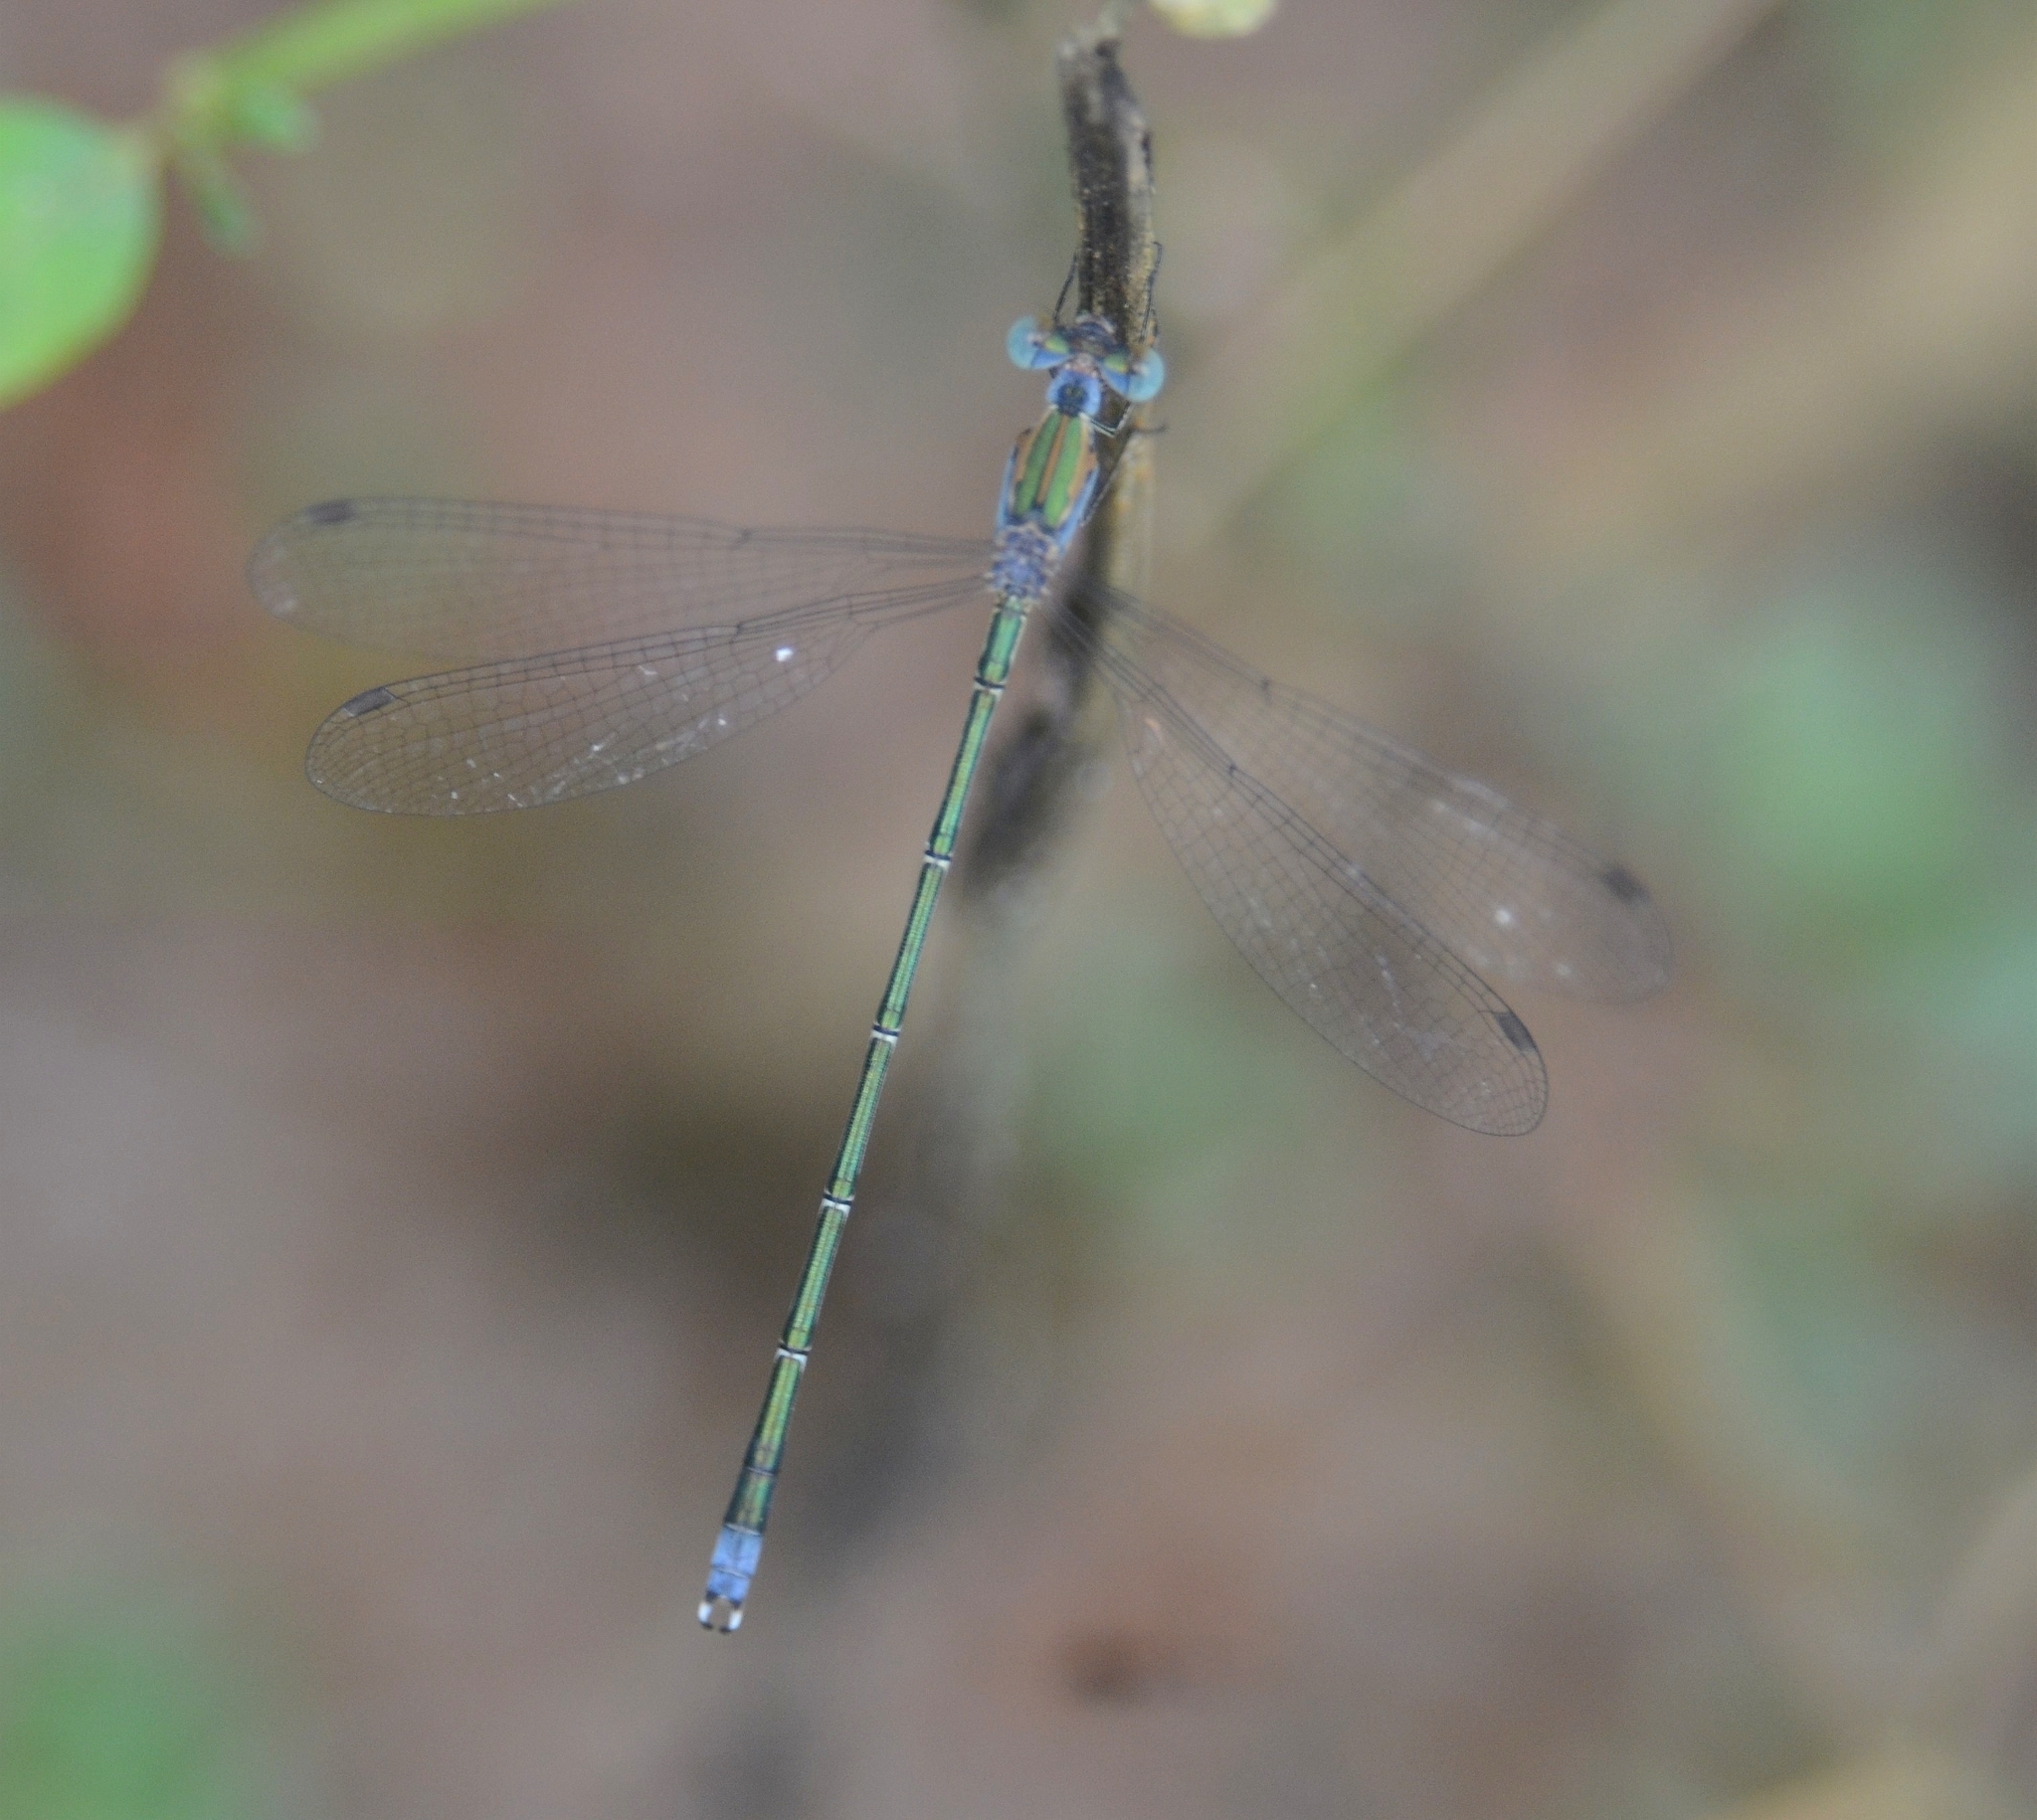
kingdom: Animalia
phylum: Arthropoda
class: Insecta
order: Odonata
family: Lestidae
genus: Lestes
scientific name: Lestes elatus
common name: Emerald spreadwing
